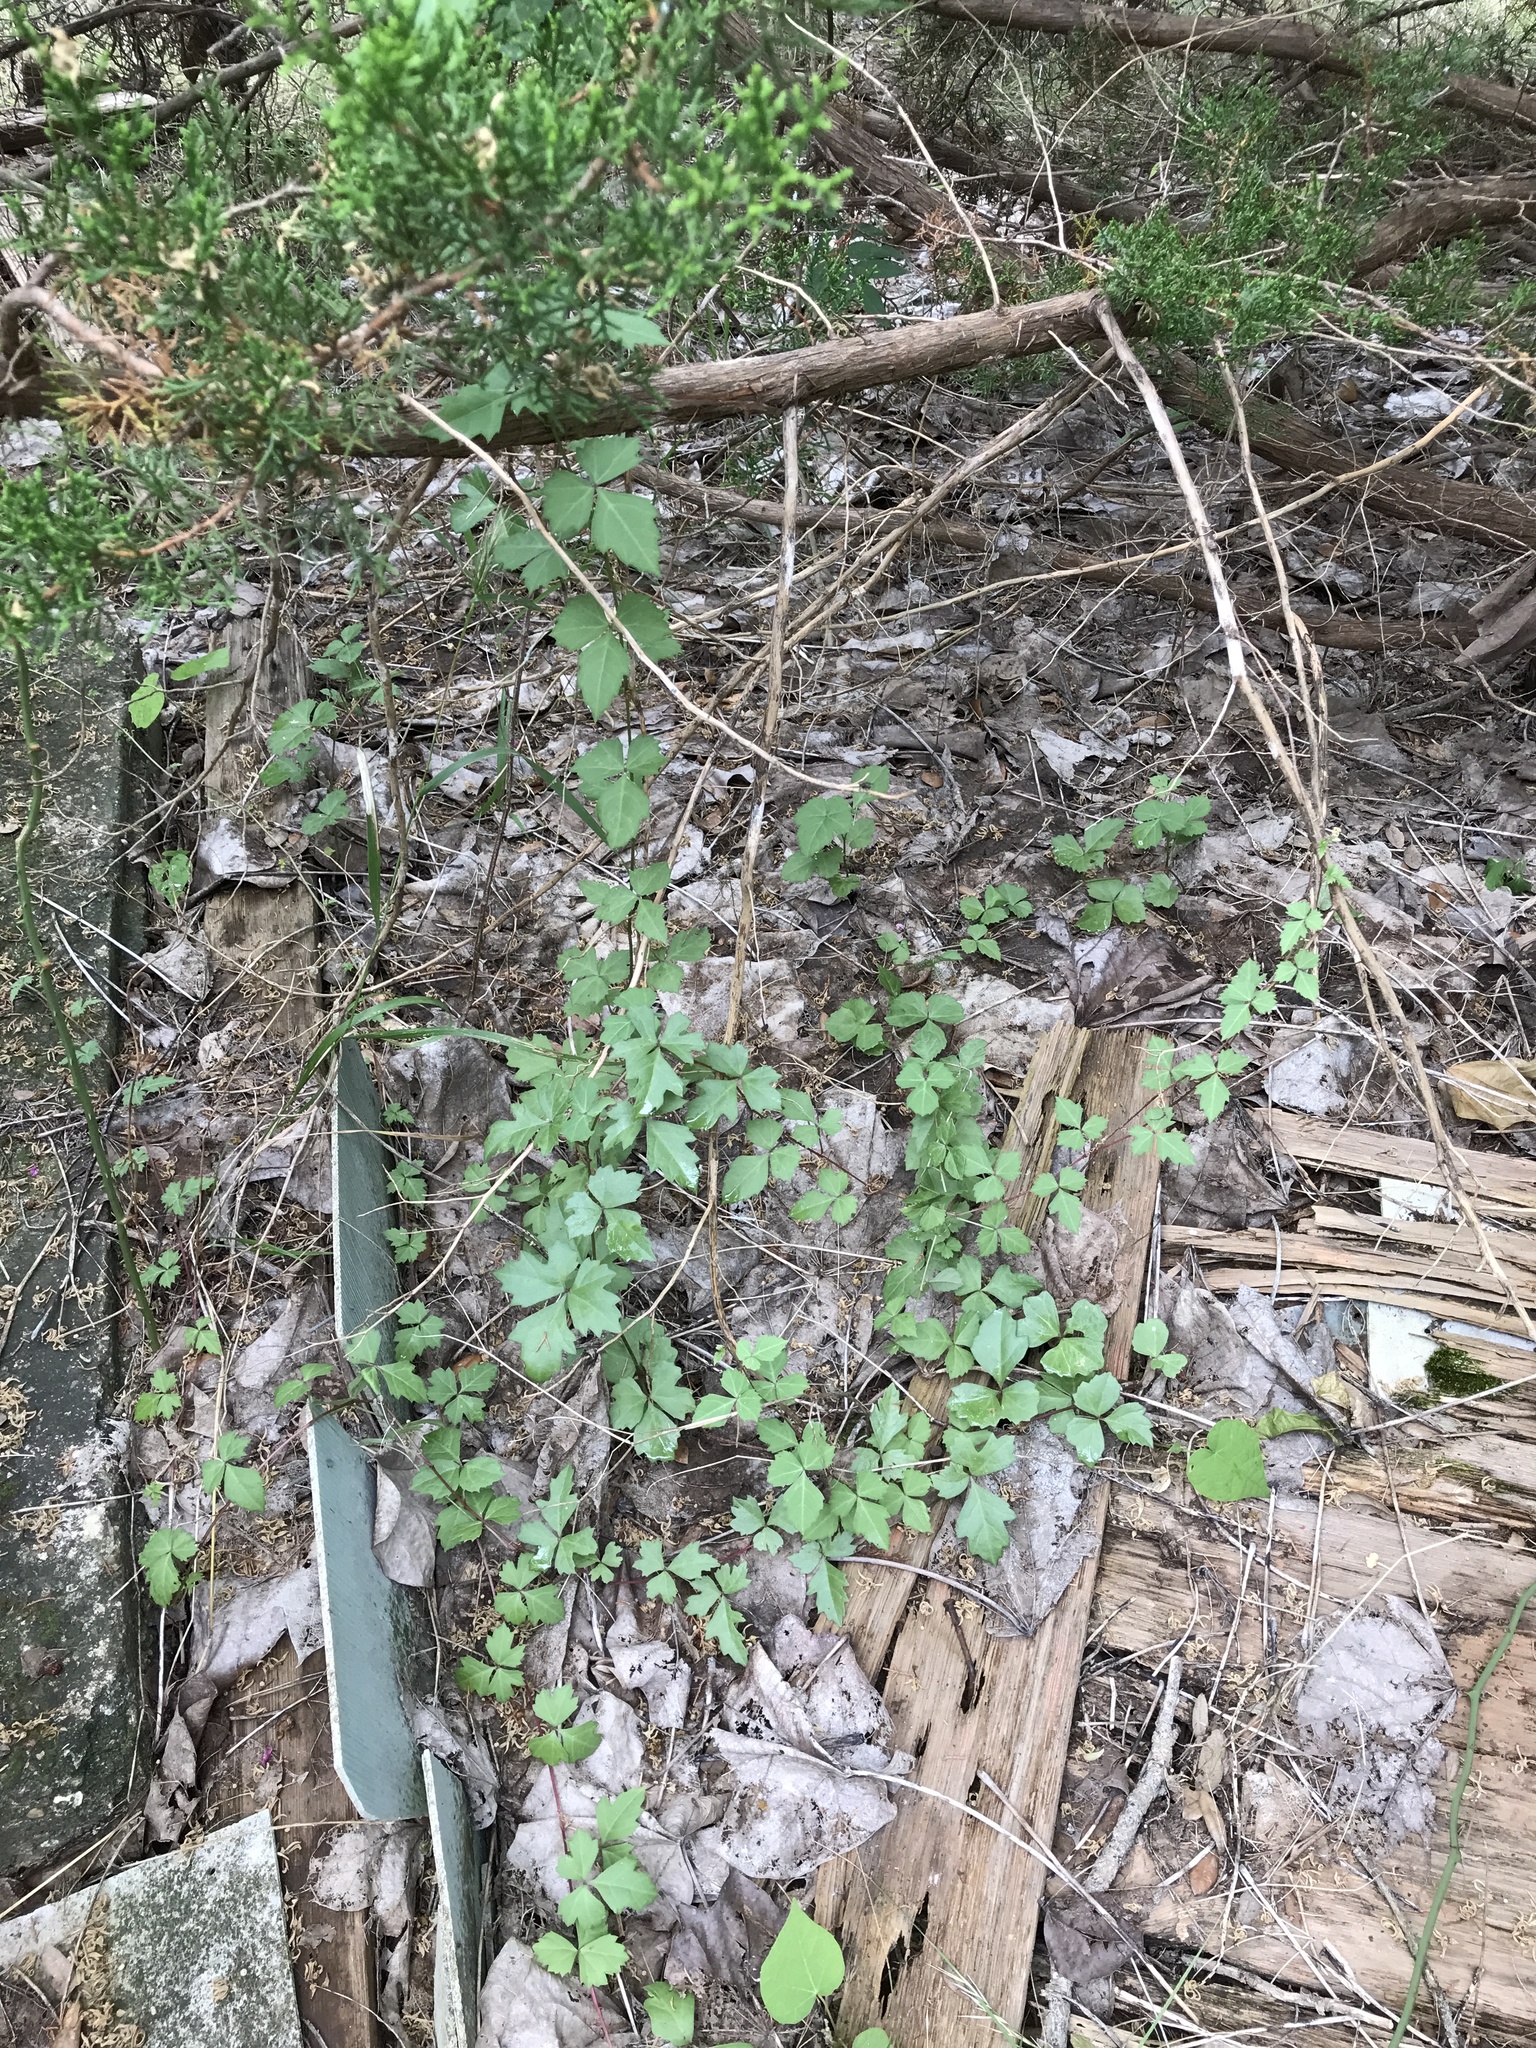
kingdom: Plantae
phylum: Tracheophyta
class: Magnoliopsida
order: Vitales
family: Vitaceae
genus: Cissus
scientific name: Cissus trifoliata
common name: Vine-sorrel
